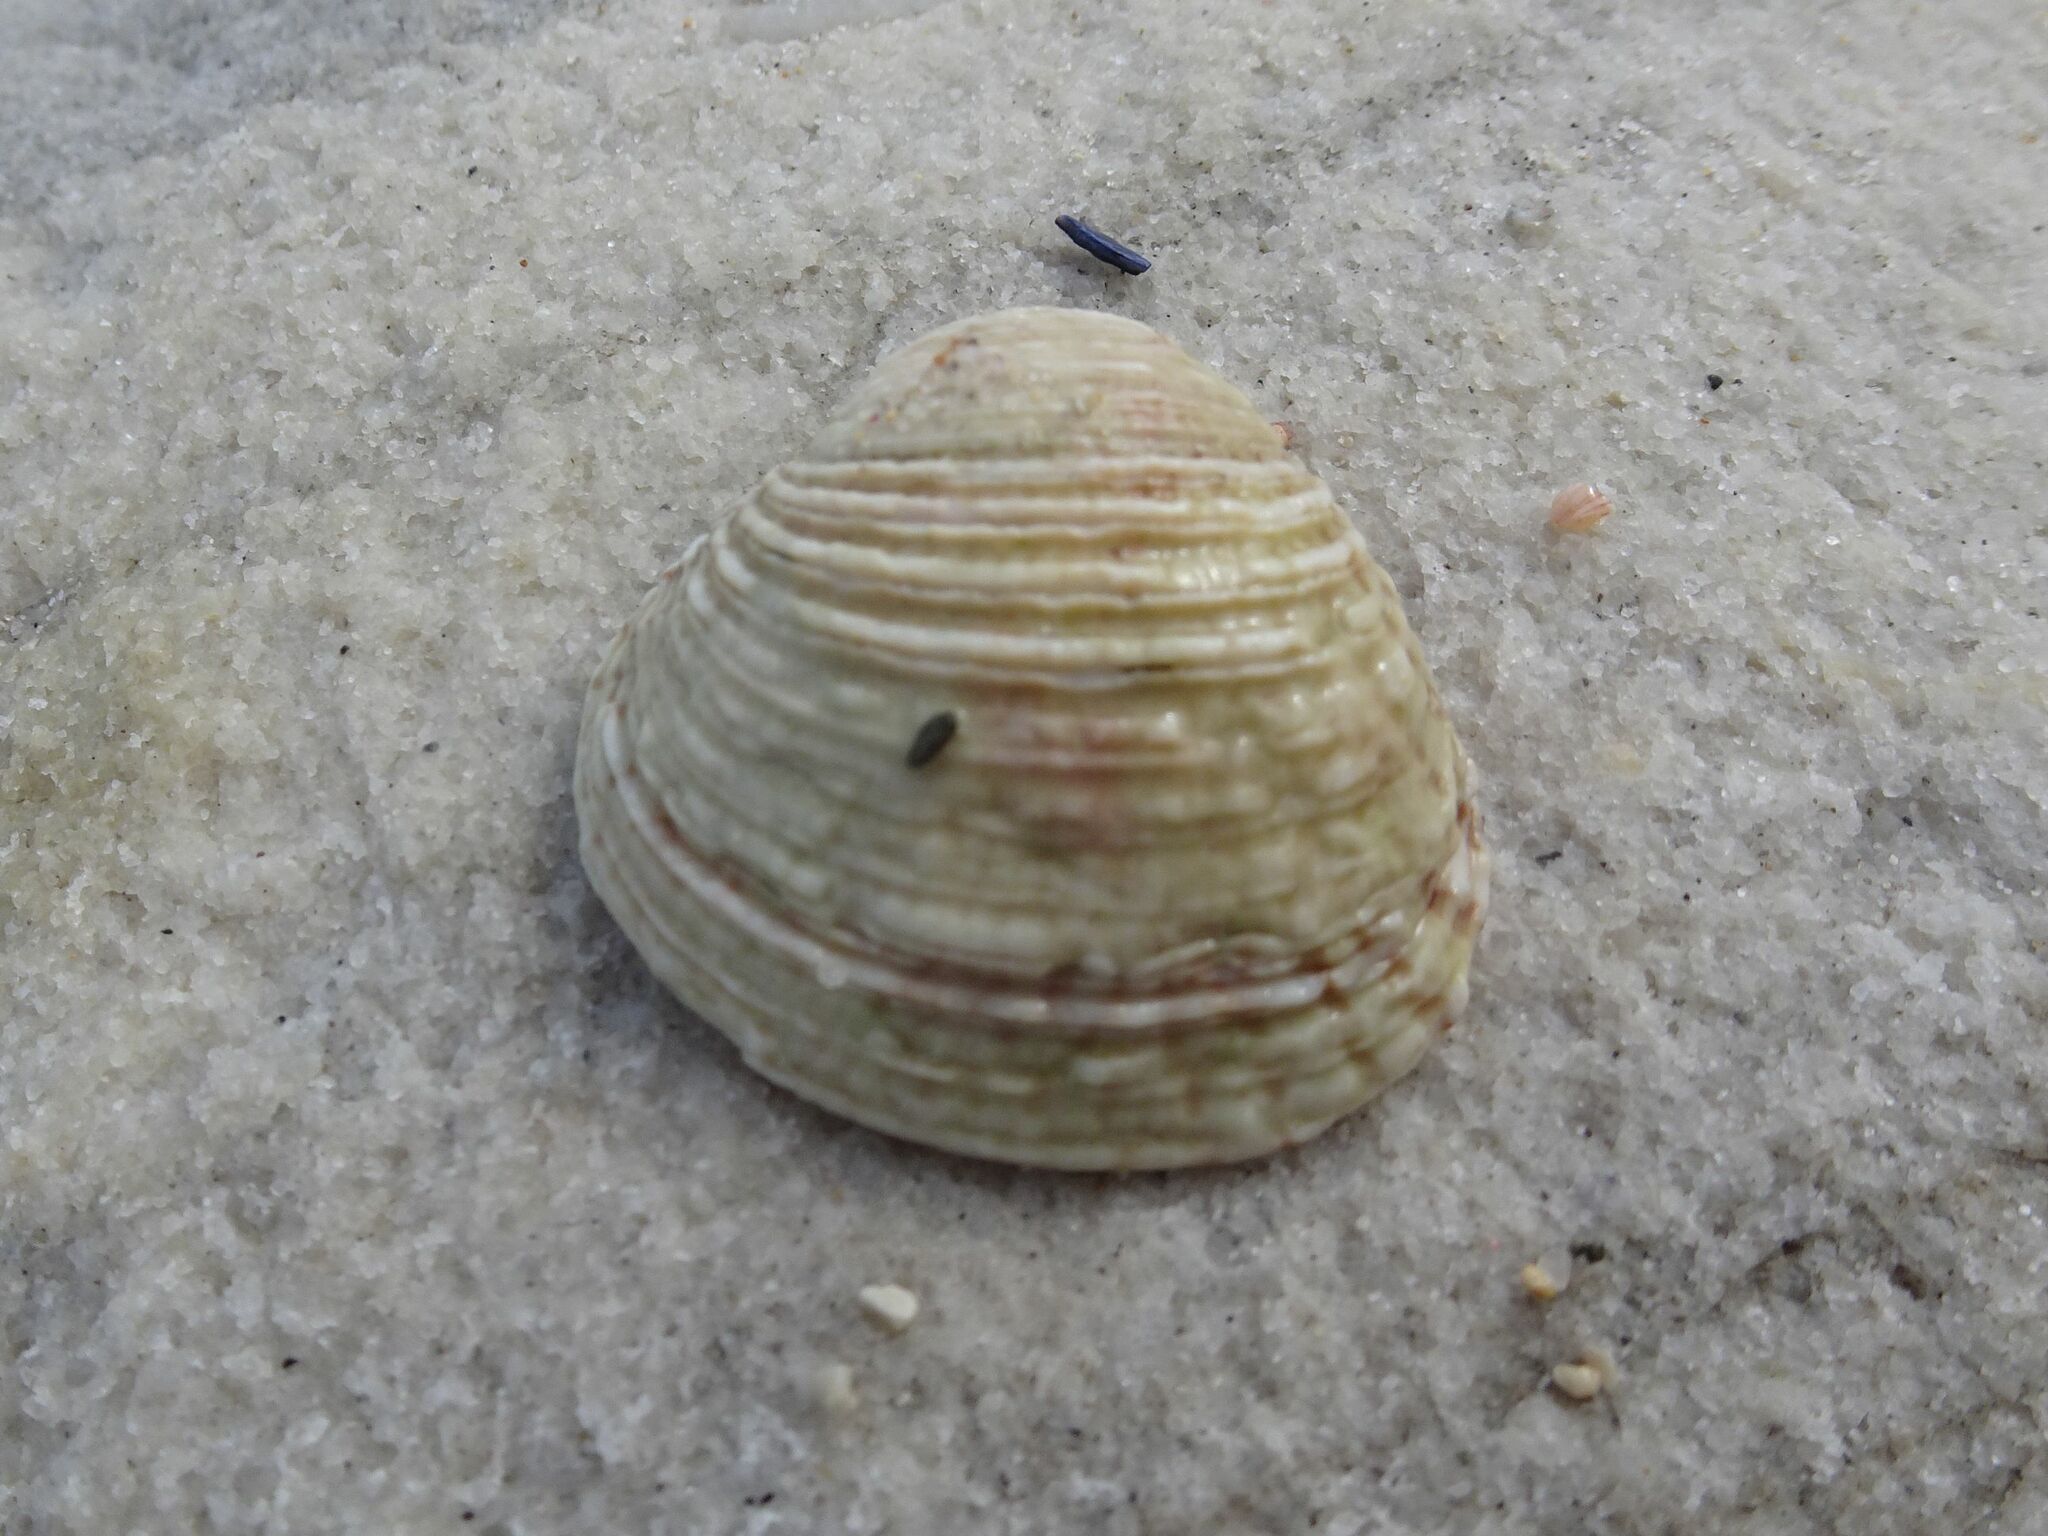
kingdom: Animalia
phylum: Mollusca
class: Bivalvia
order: Venerida
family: Veneridae
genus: Venus
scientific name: Venus verrucosa
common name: Warty venus
